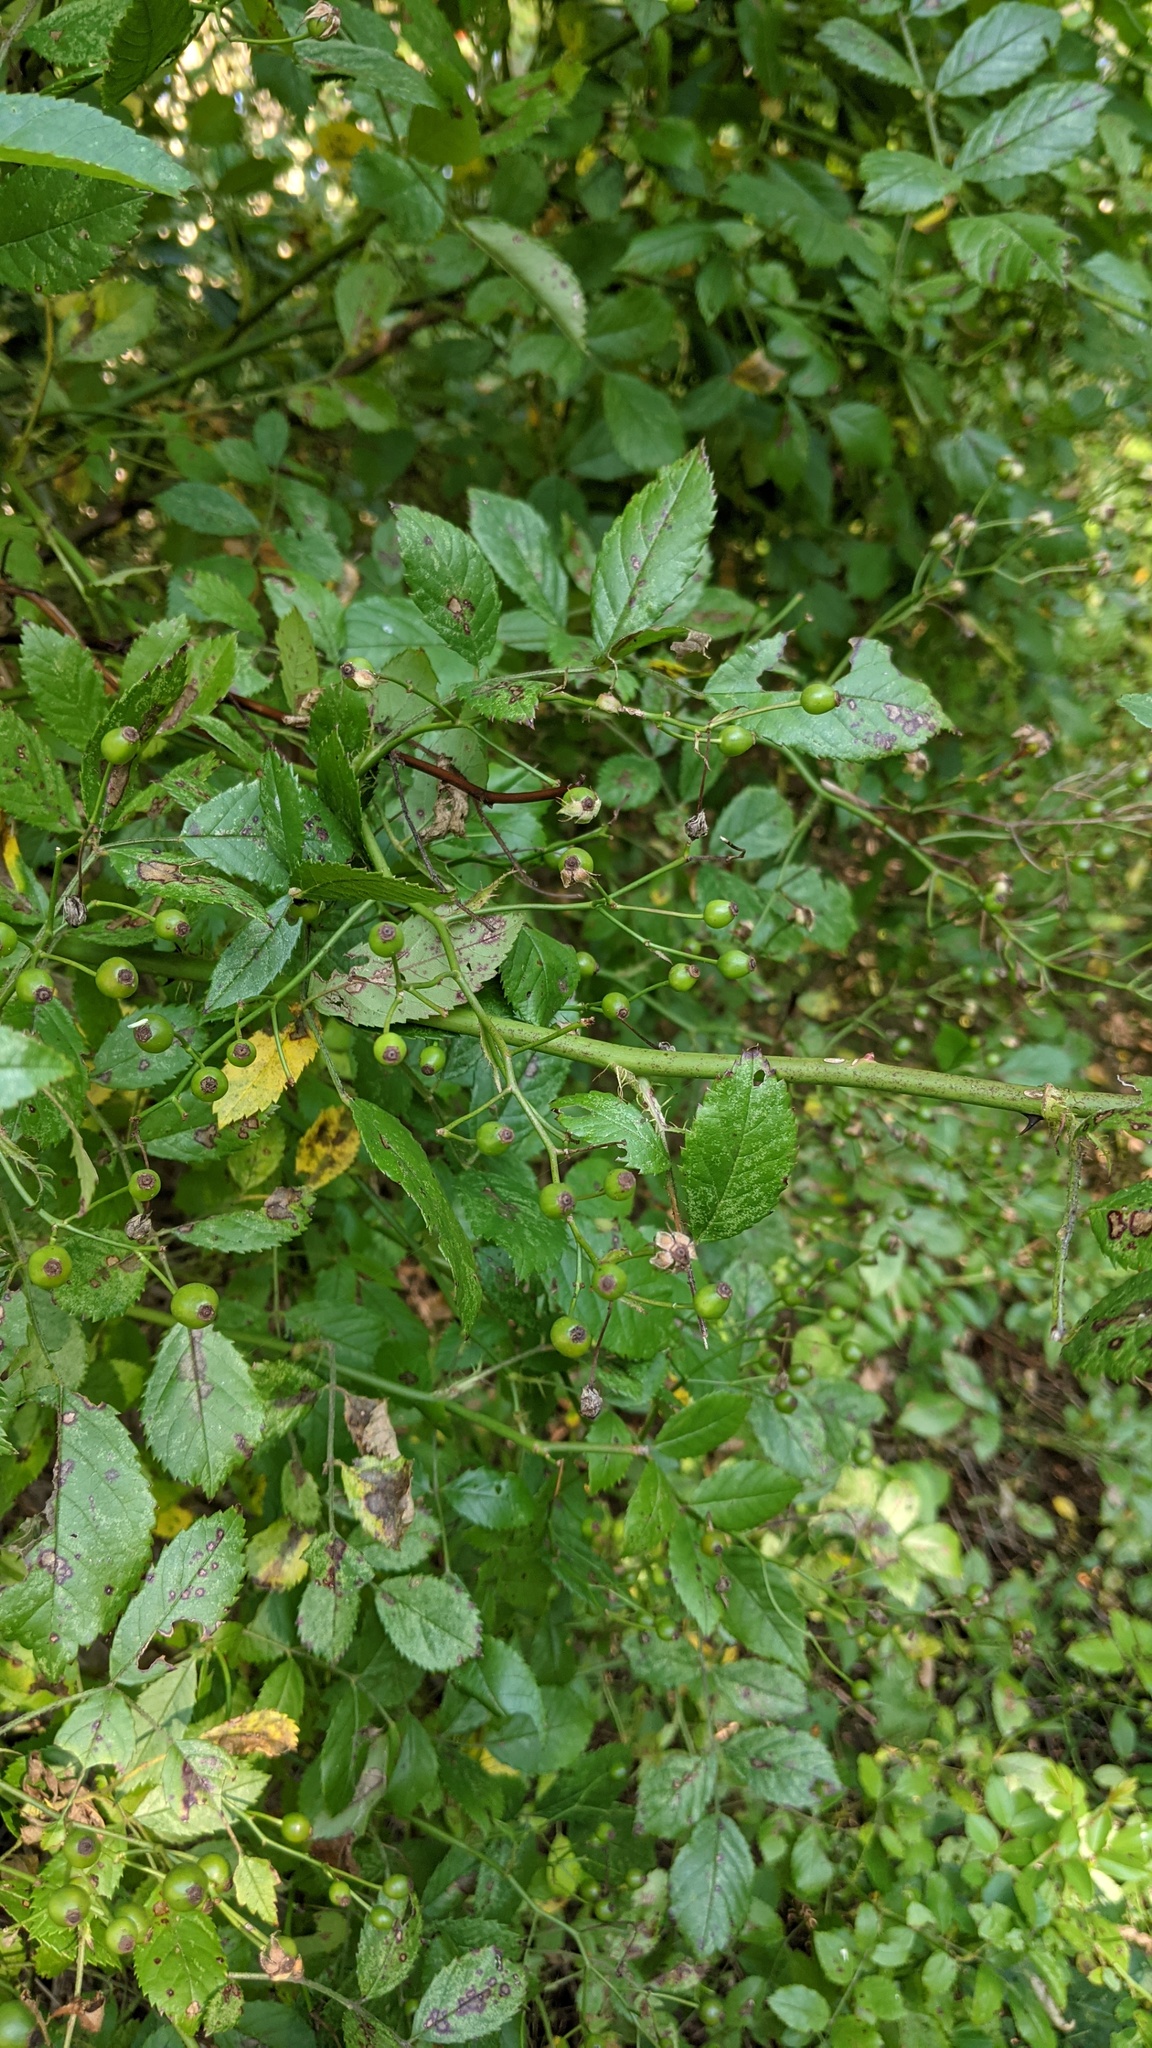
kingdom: Plantae
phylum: Tracheophyta
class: Magnoliopsida
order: Rosales
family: Rosaceae
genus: Rosa
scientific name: Rosa multiflora
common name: Multiflora rose
